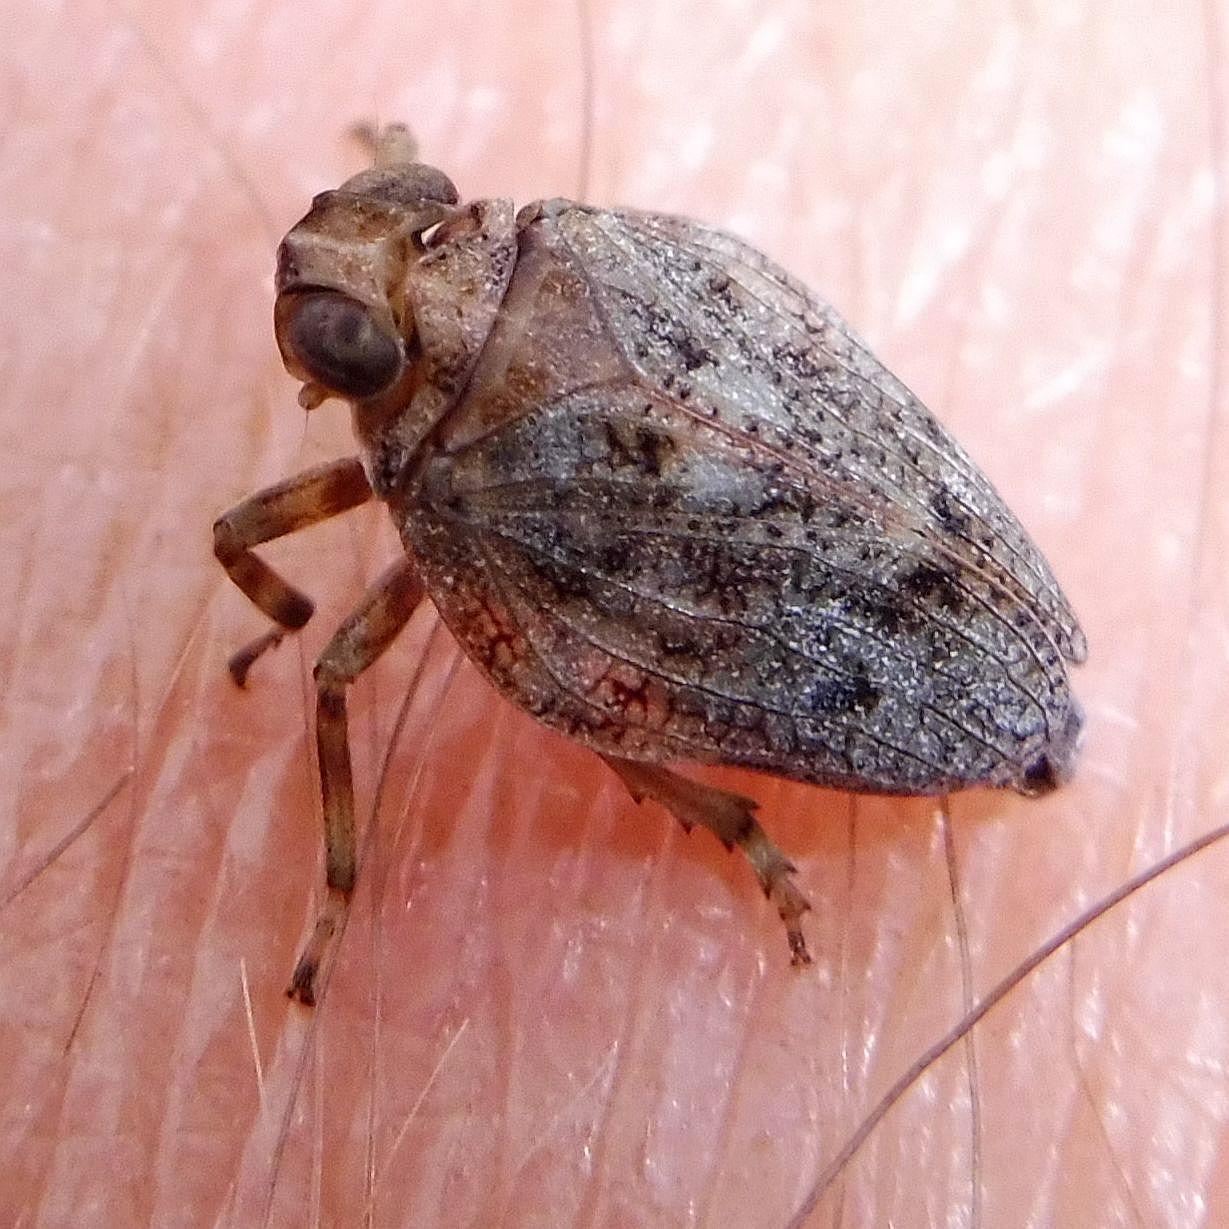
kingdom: Animalia
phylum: Arthropoda
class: Insecta
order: Hemiptera
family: Issidae
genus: Issus
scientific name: Issus coleoptratus
